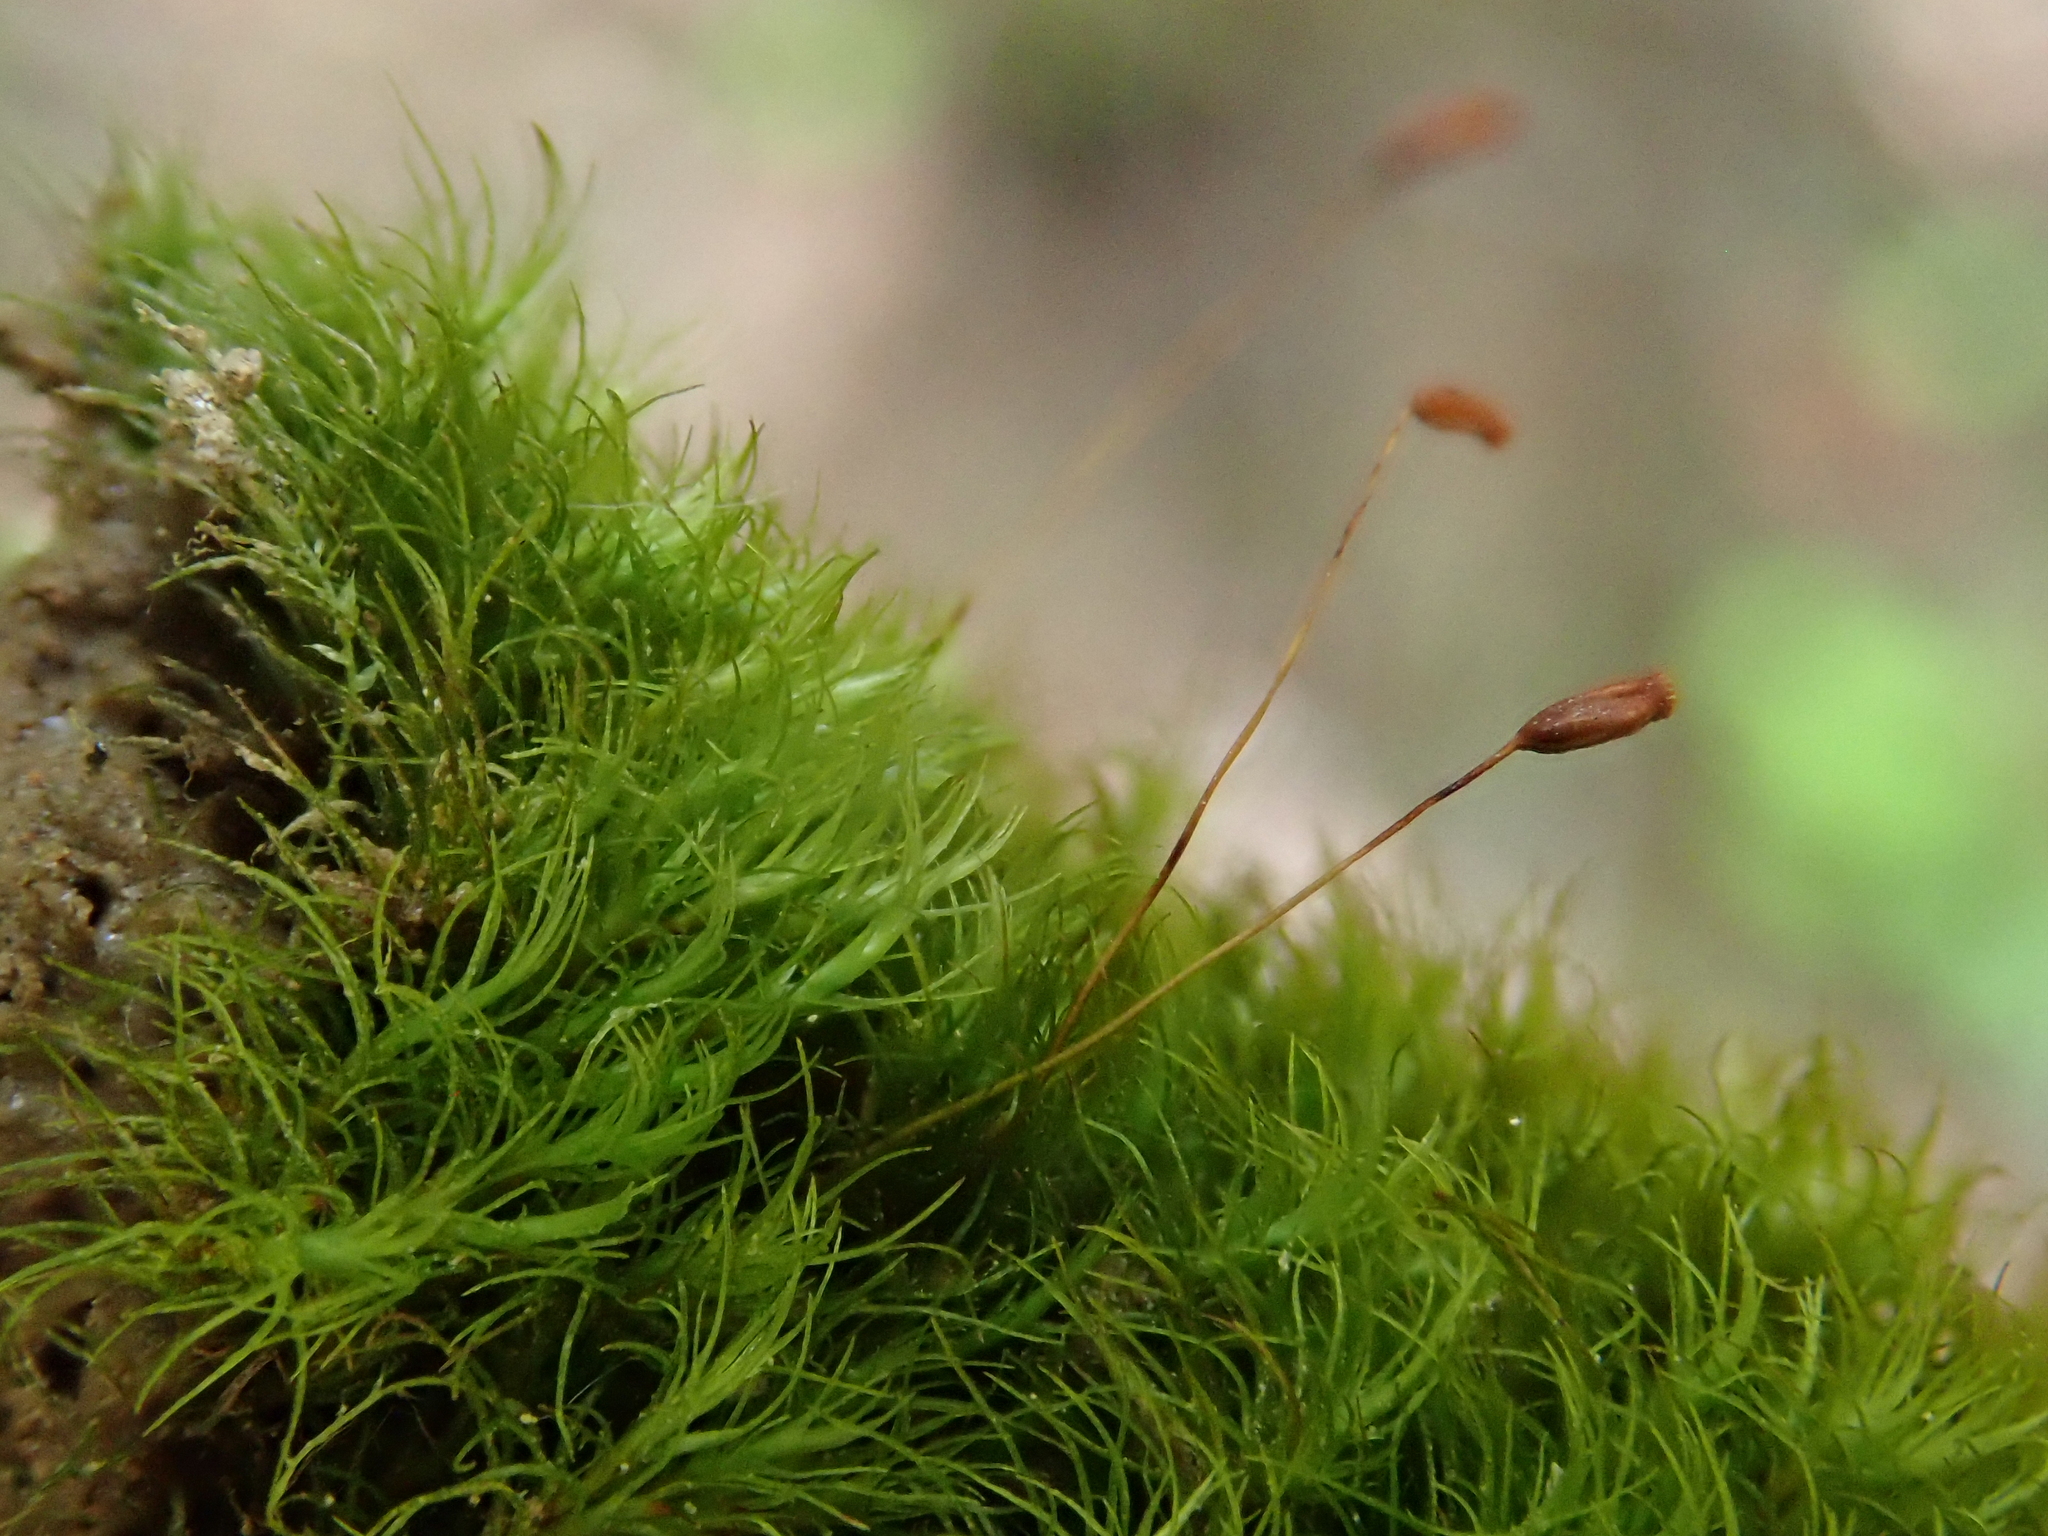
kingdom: Plantae
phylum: Bryophyta
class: Bryopsida
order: Dicranales
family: Dicranellaceae
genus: Dicranella
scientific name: Dicranella heteromalla
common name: Silky forklet moss
